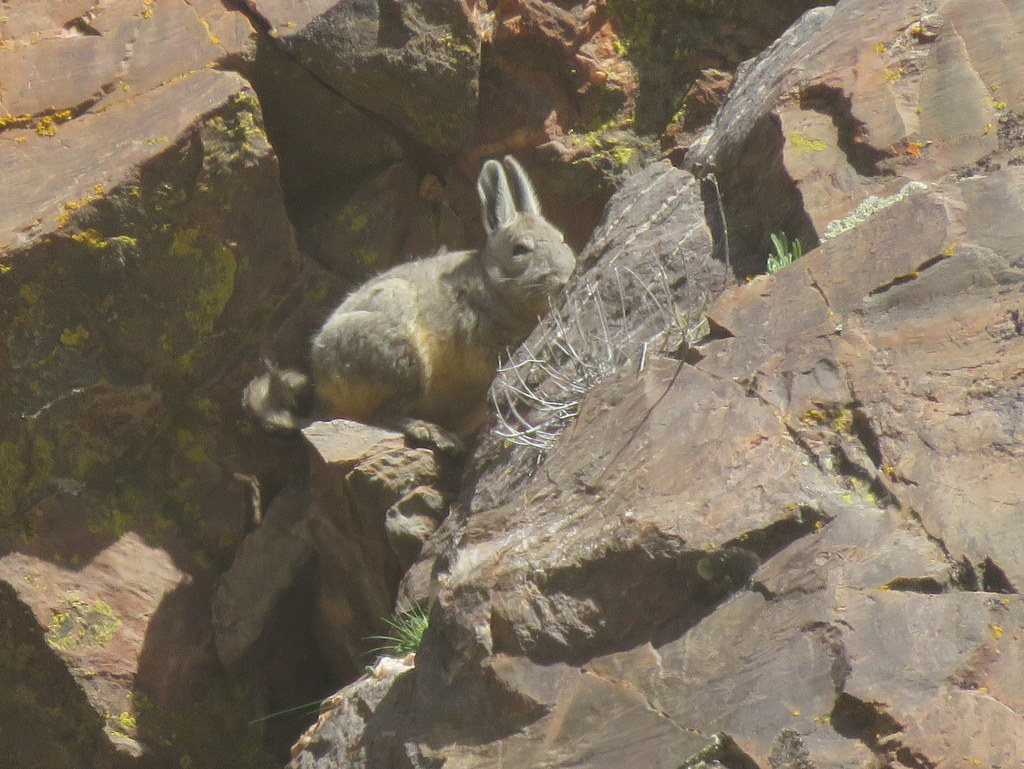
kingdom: Animalia
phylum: Chordata
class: Mammalia
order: Rodentia
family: Chinchillidae
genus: Lagidium
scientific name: Lagidium viscacia
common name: Southern viscacha
